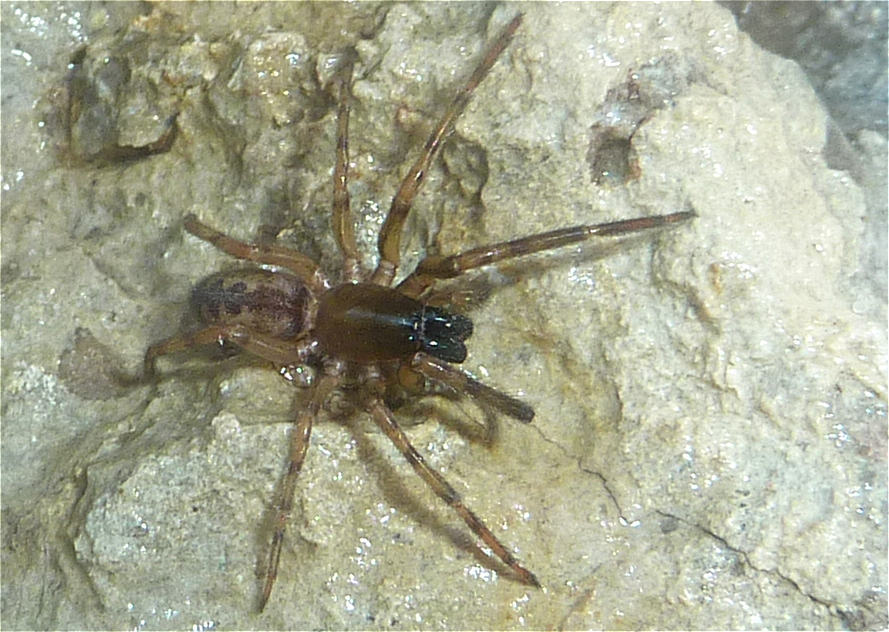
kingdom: Animalia
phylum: Arthropoda
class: Arachnida
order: Araneae
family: Segestriidae
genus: Segestria
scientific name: Segestria senoculata
